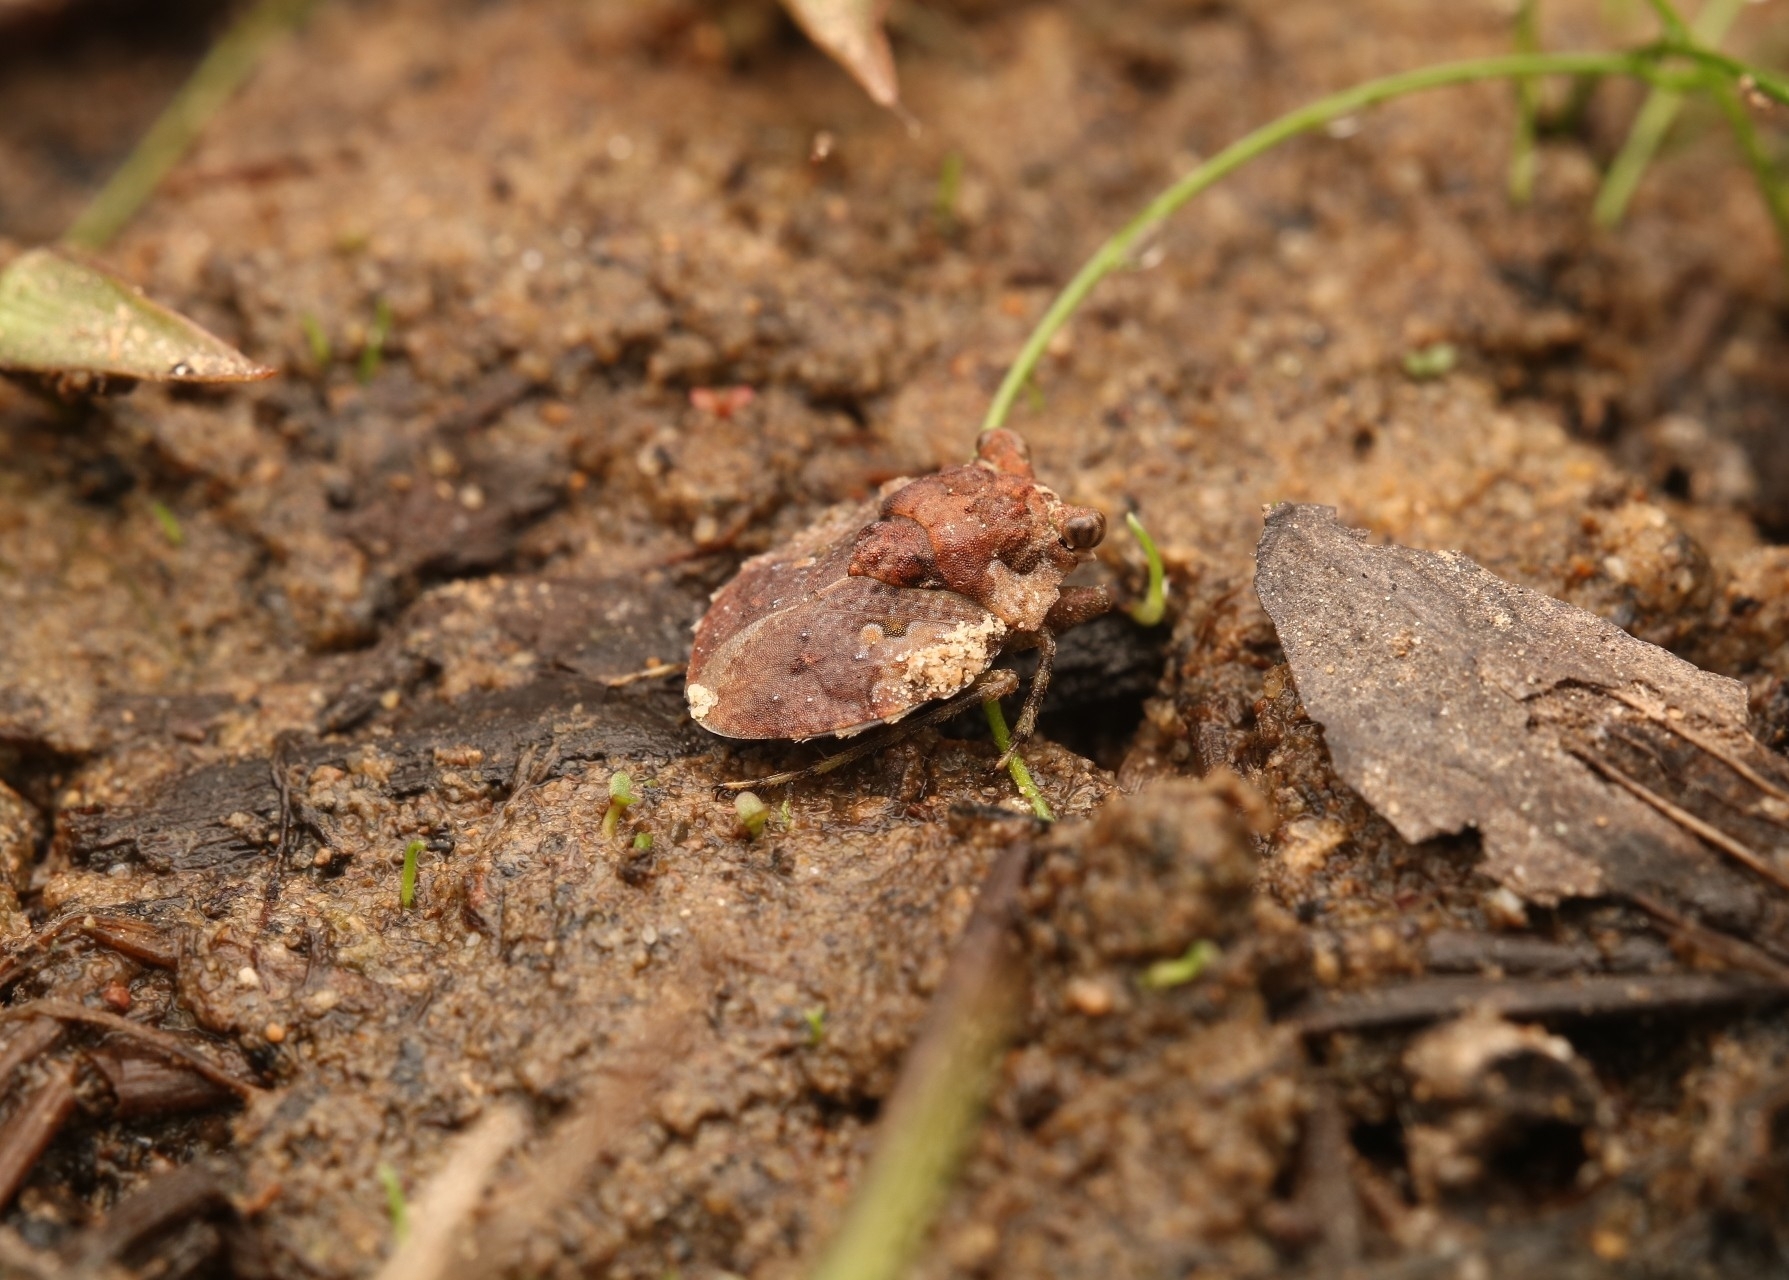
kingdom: Animalia
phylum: Arthropoda
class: Insecta
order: Hemiptera
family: Gelastocoridae
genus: Gelastocoris
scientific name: Gelastocoris oculatus
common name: Toad bug
